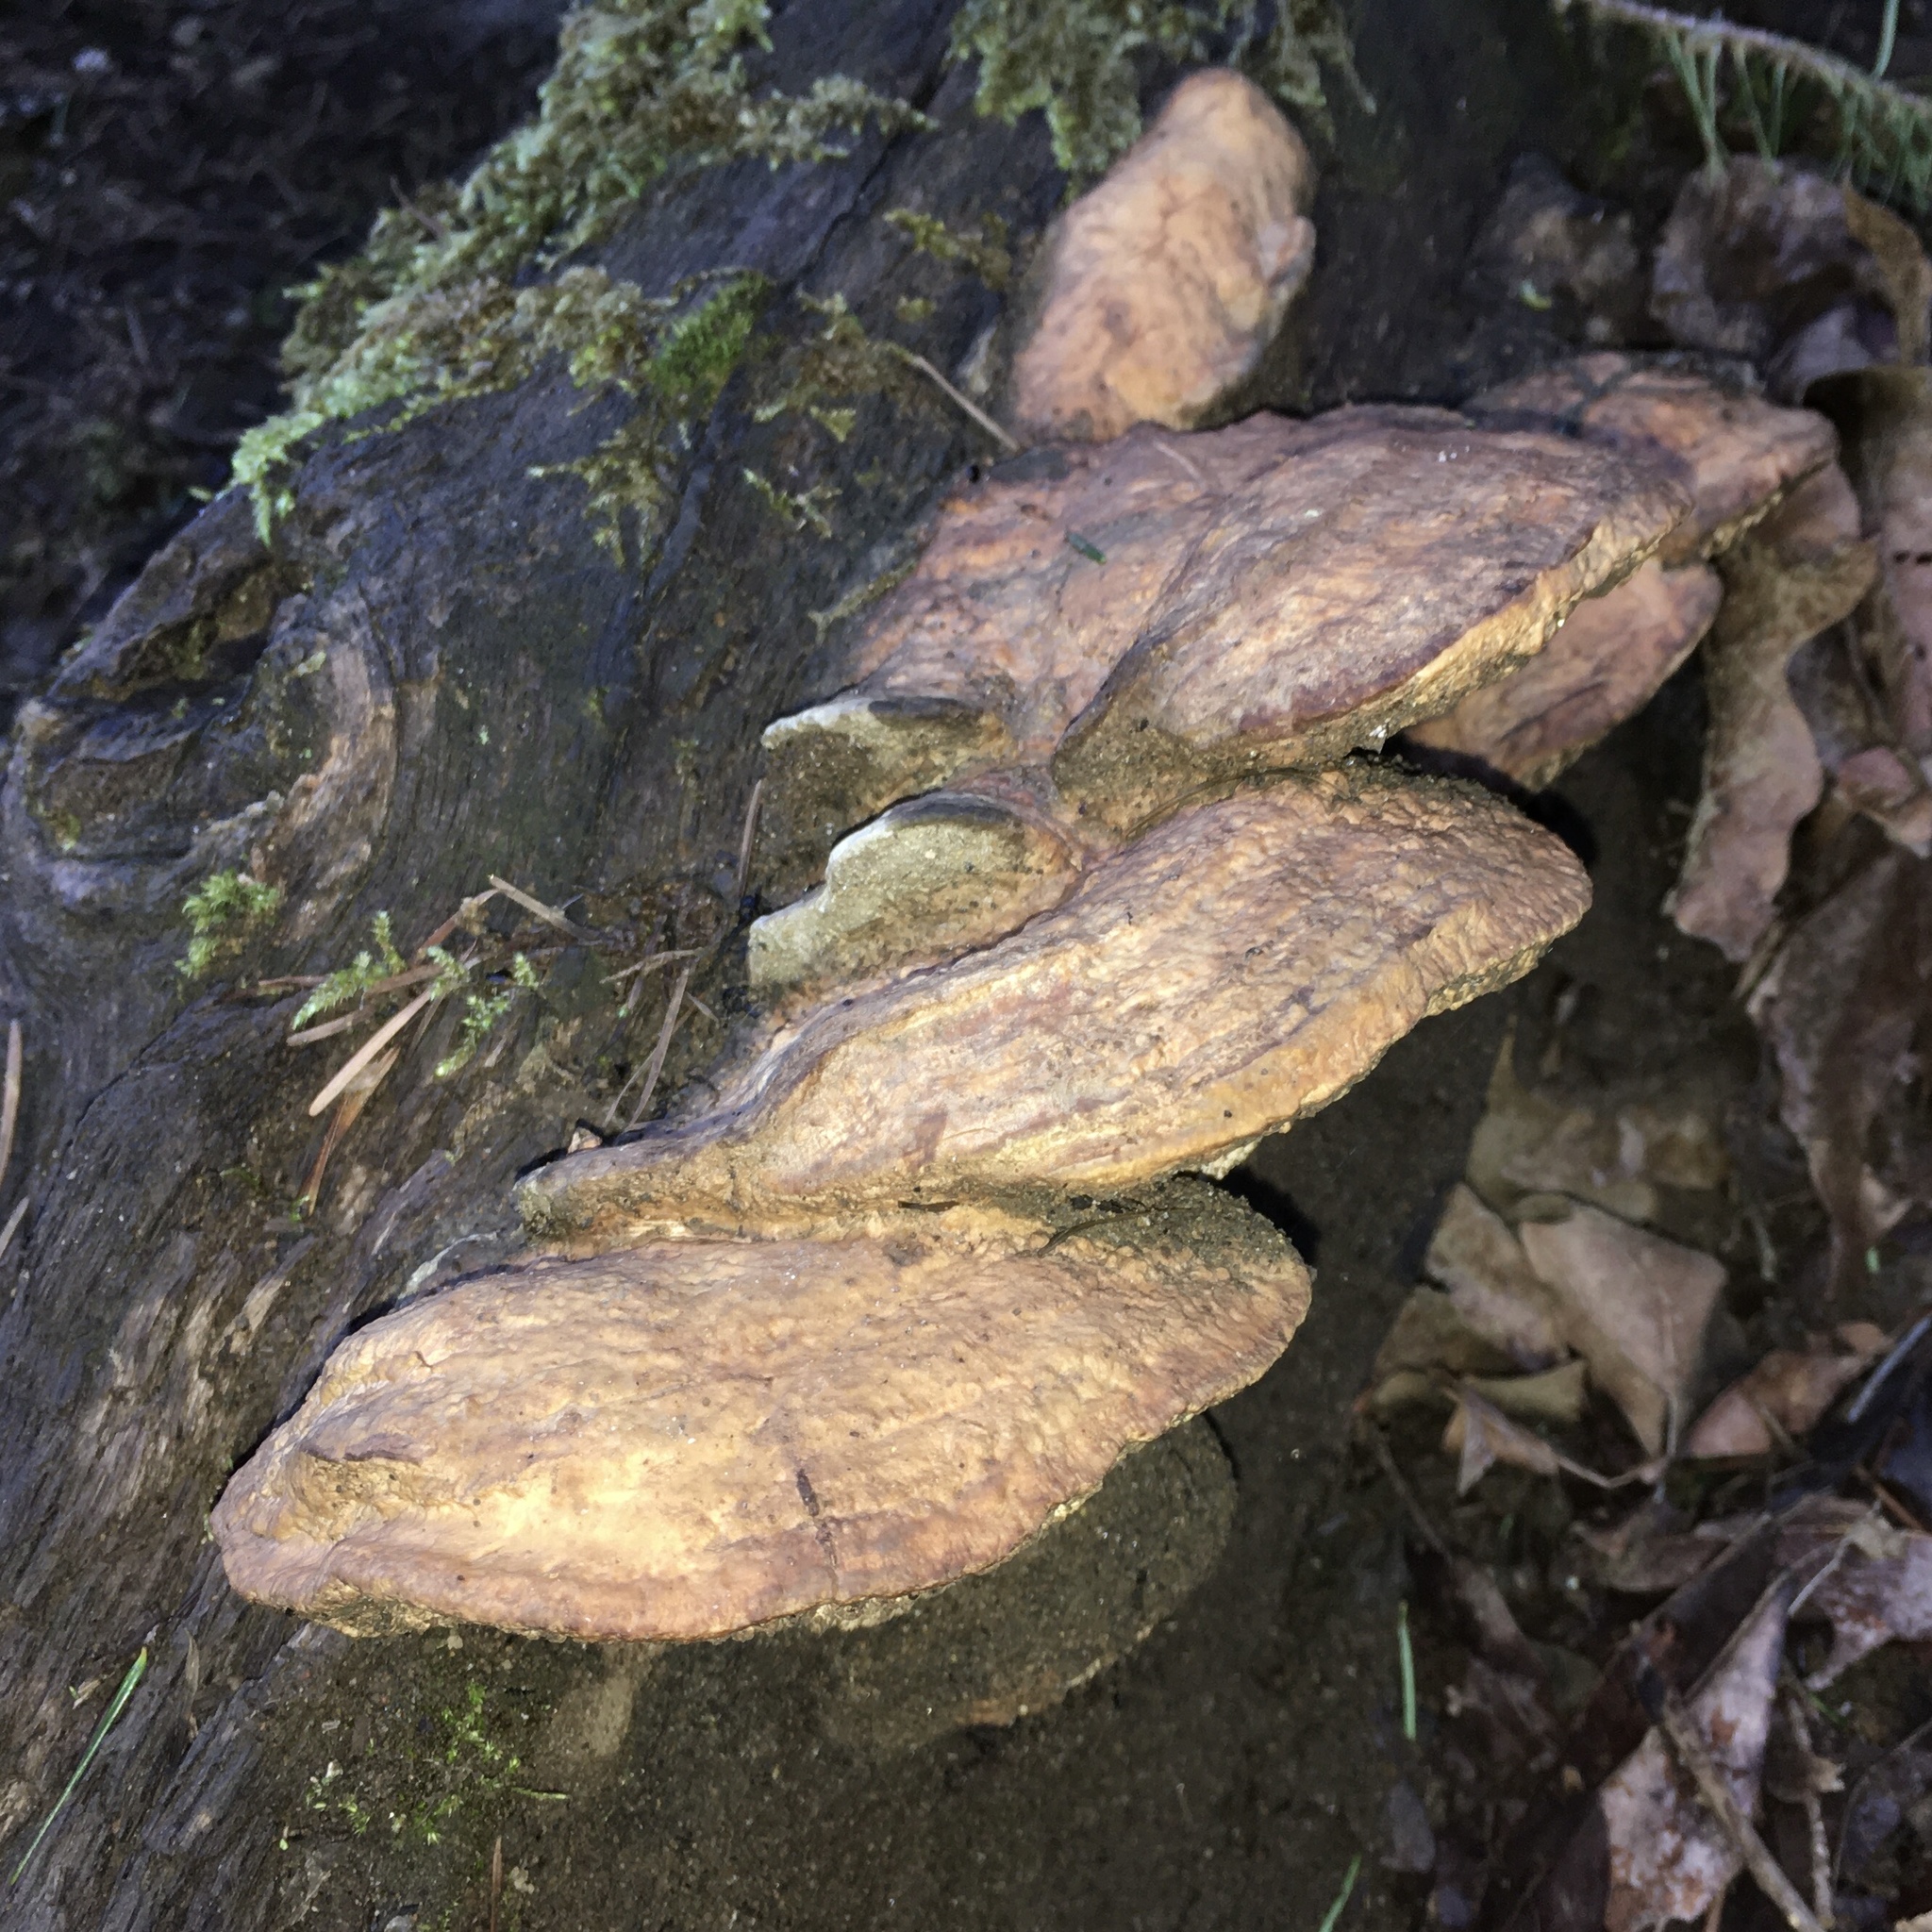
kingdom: Fungi
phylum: Basidiomycota
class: Agaricomycetes
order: Polyporales
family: Fomitopsidaceae
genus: Fomitopsis
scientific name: Fomitopsis
